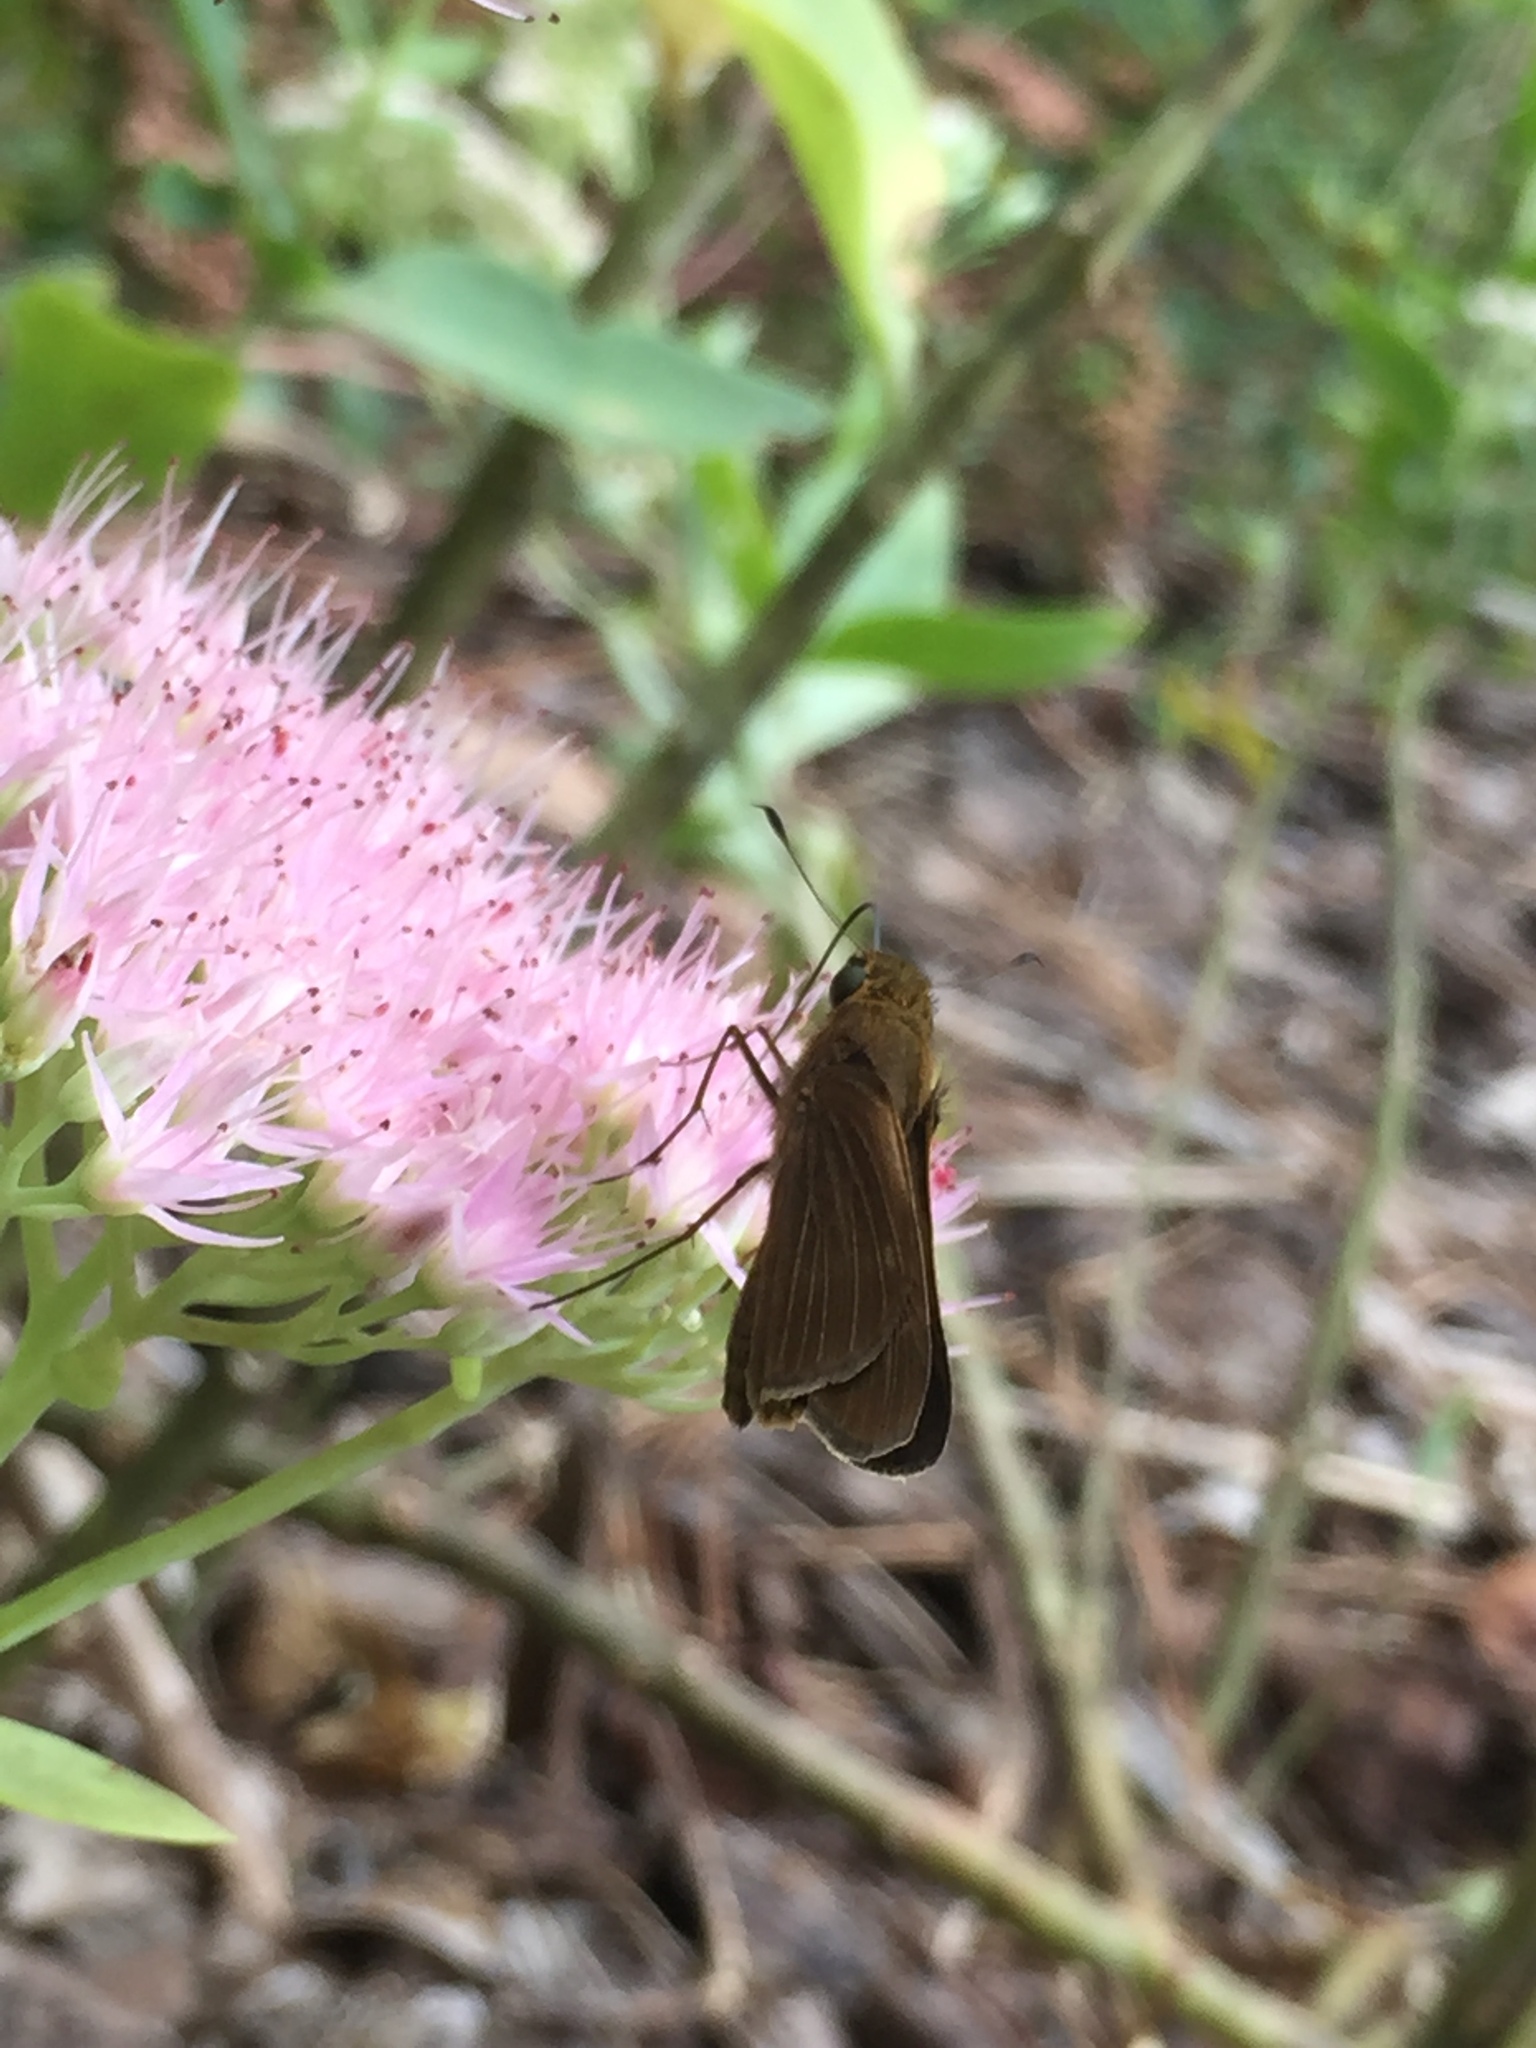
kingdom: Animalia
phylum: Arthropoda
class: Insecta
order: Lepidoptera
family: Hesperiidae
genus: Panoquina
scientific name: Panoquina ocola
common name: Ocola skipper
